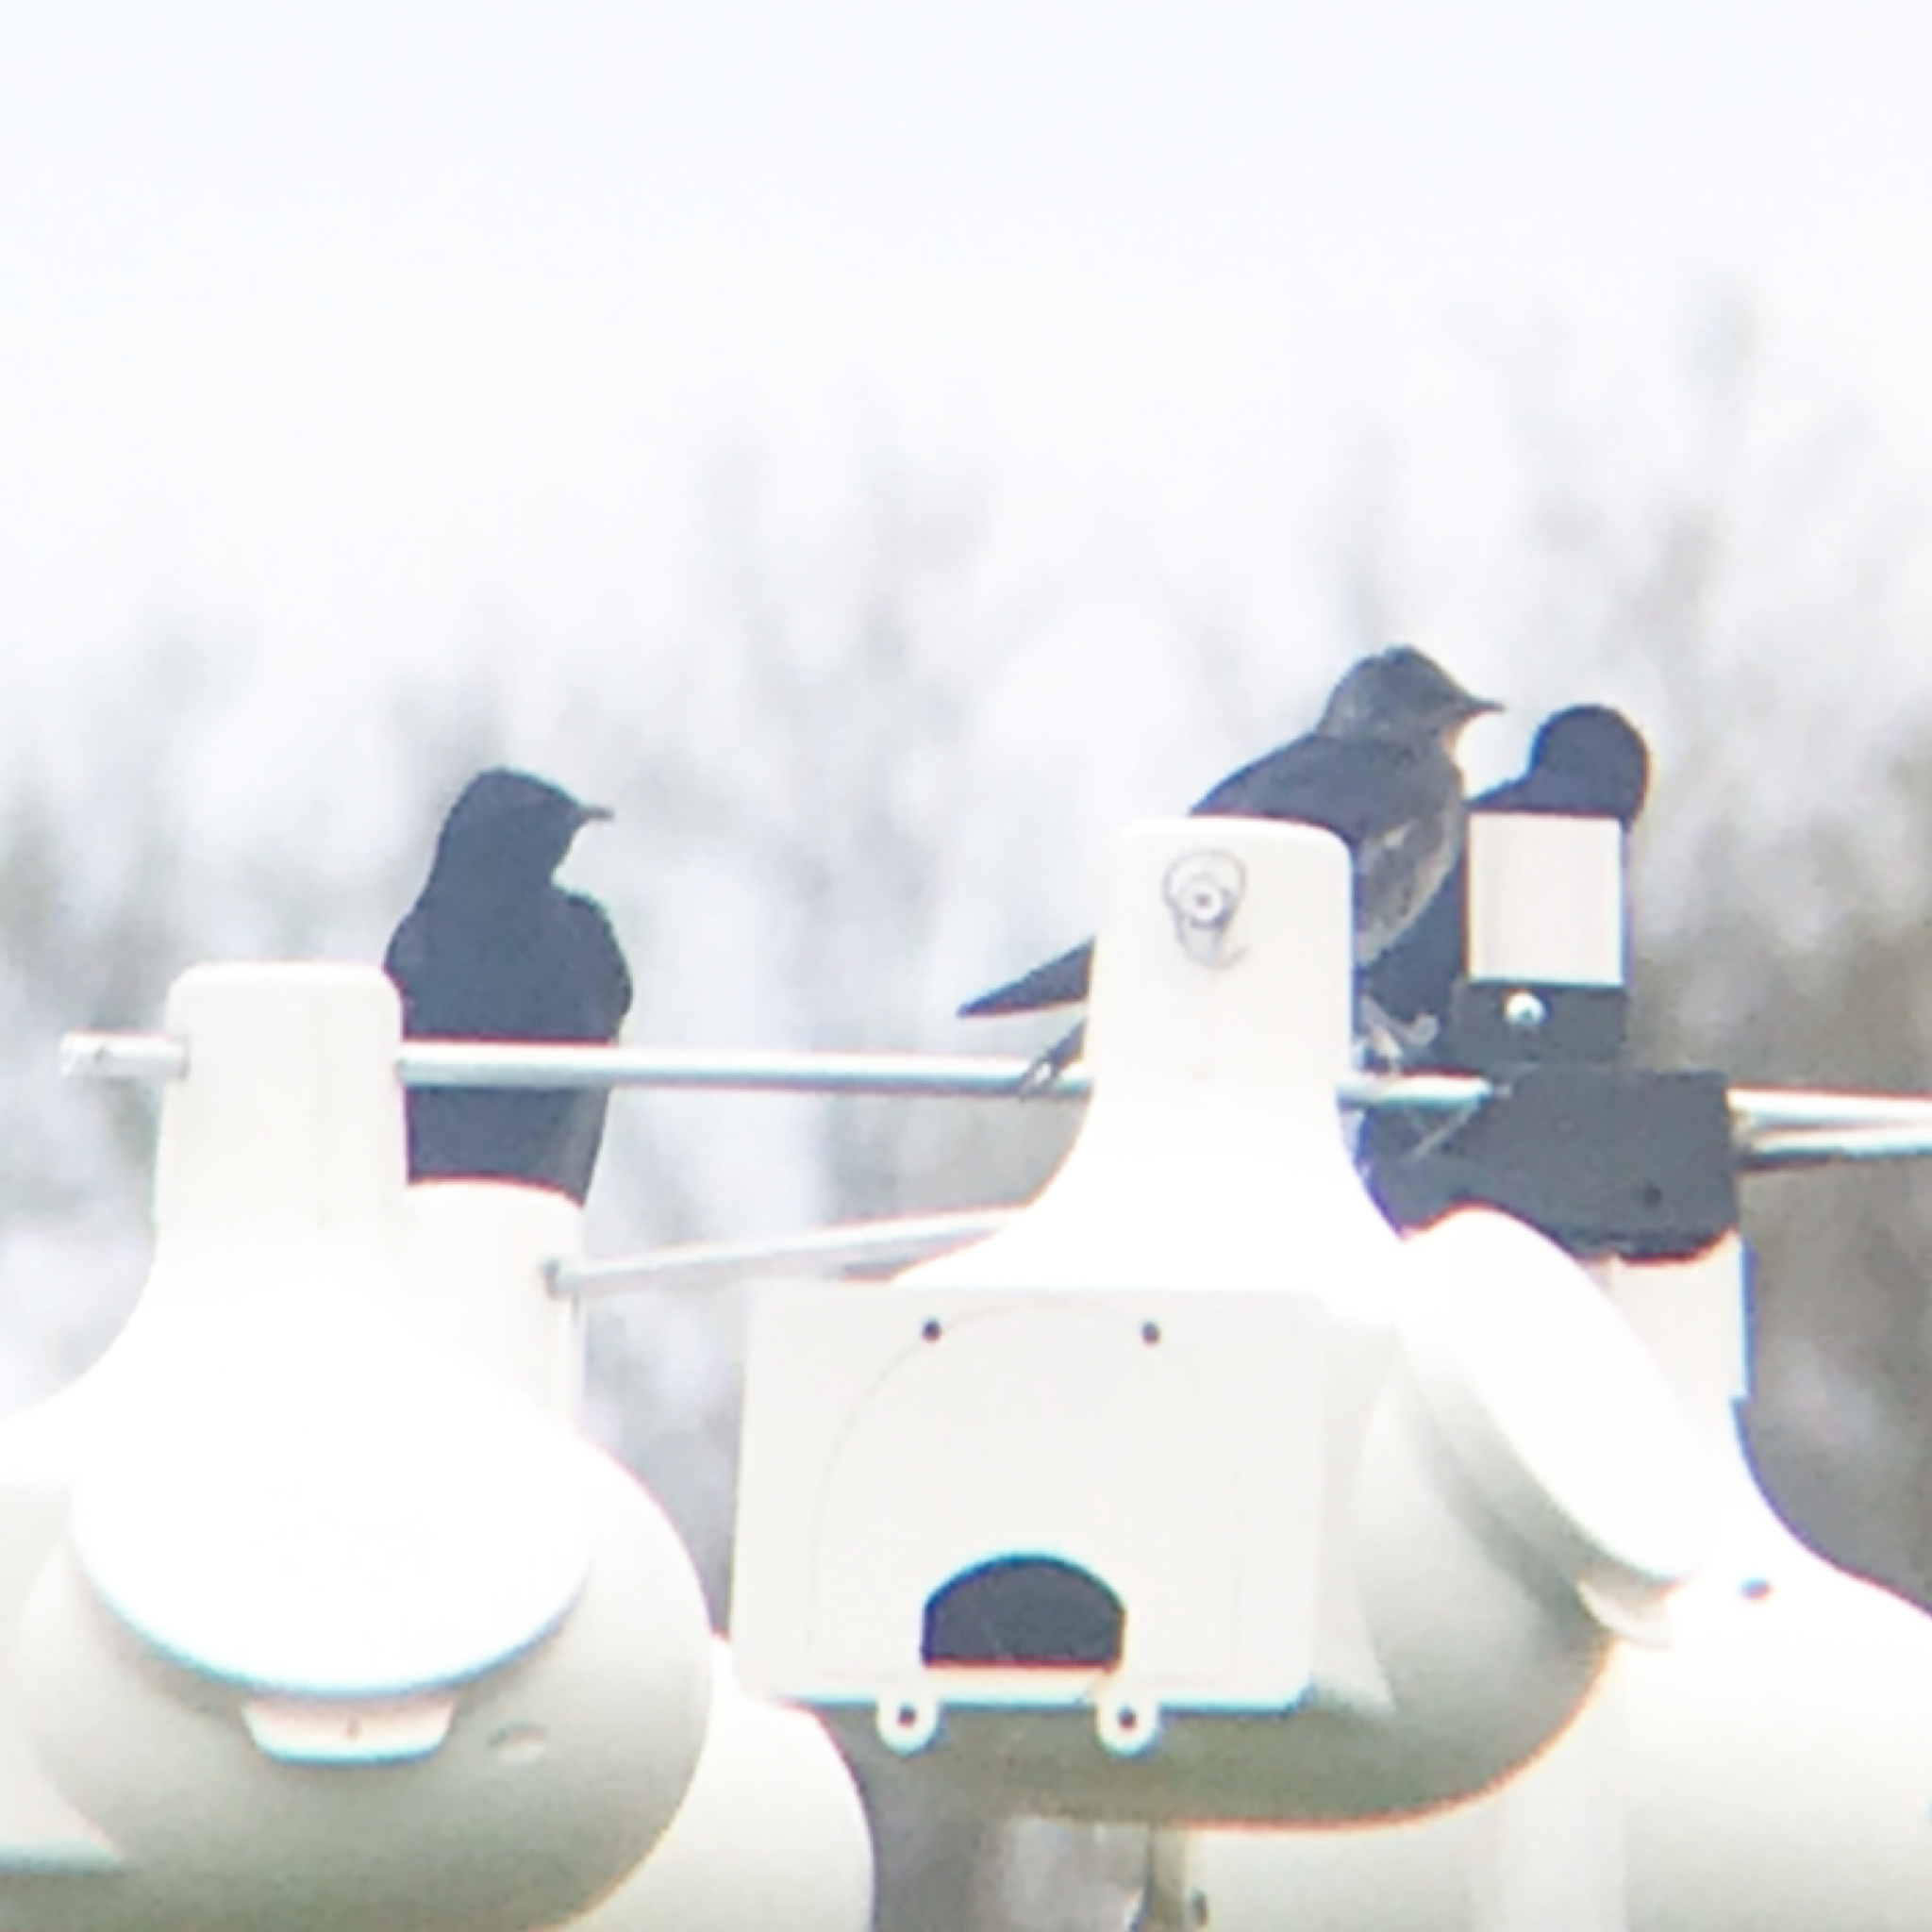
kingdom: Animalia
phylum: Chordata
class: Aves
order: Passeriformes
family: Hirundinidae
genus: Progne
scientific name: Progne subis
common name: Purple martin
